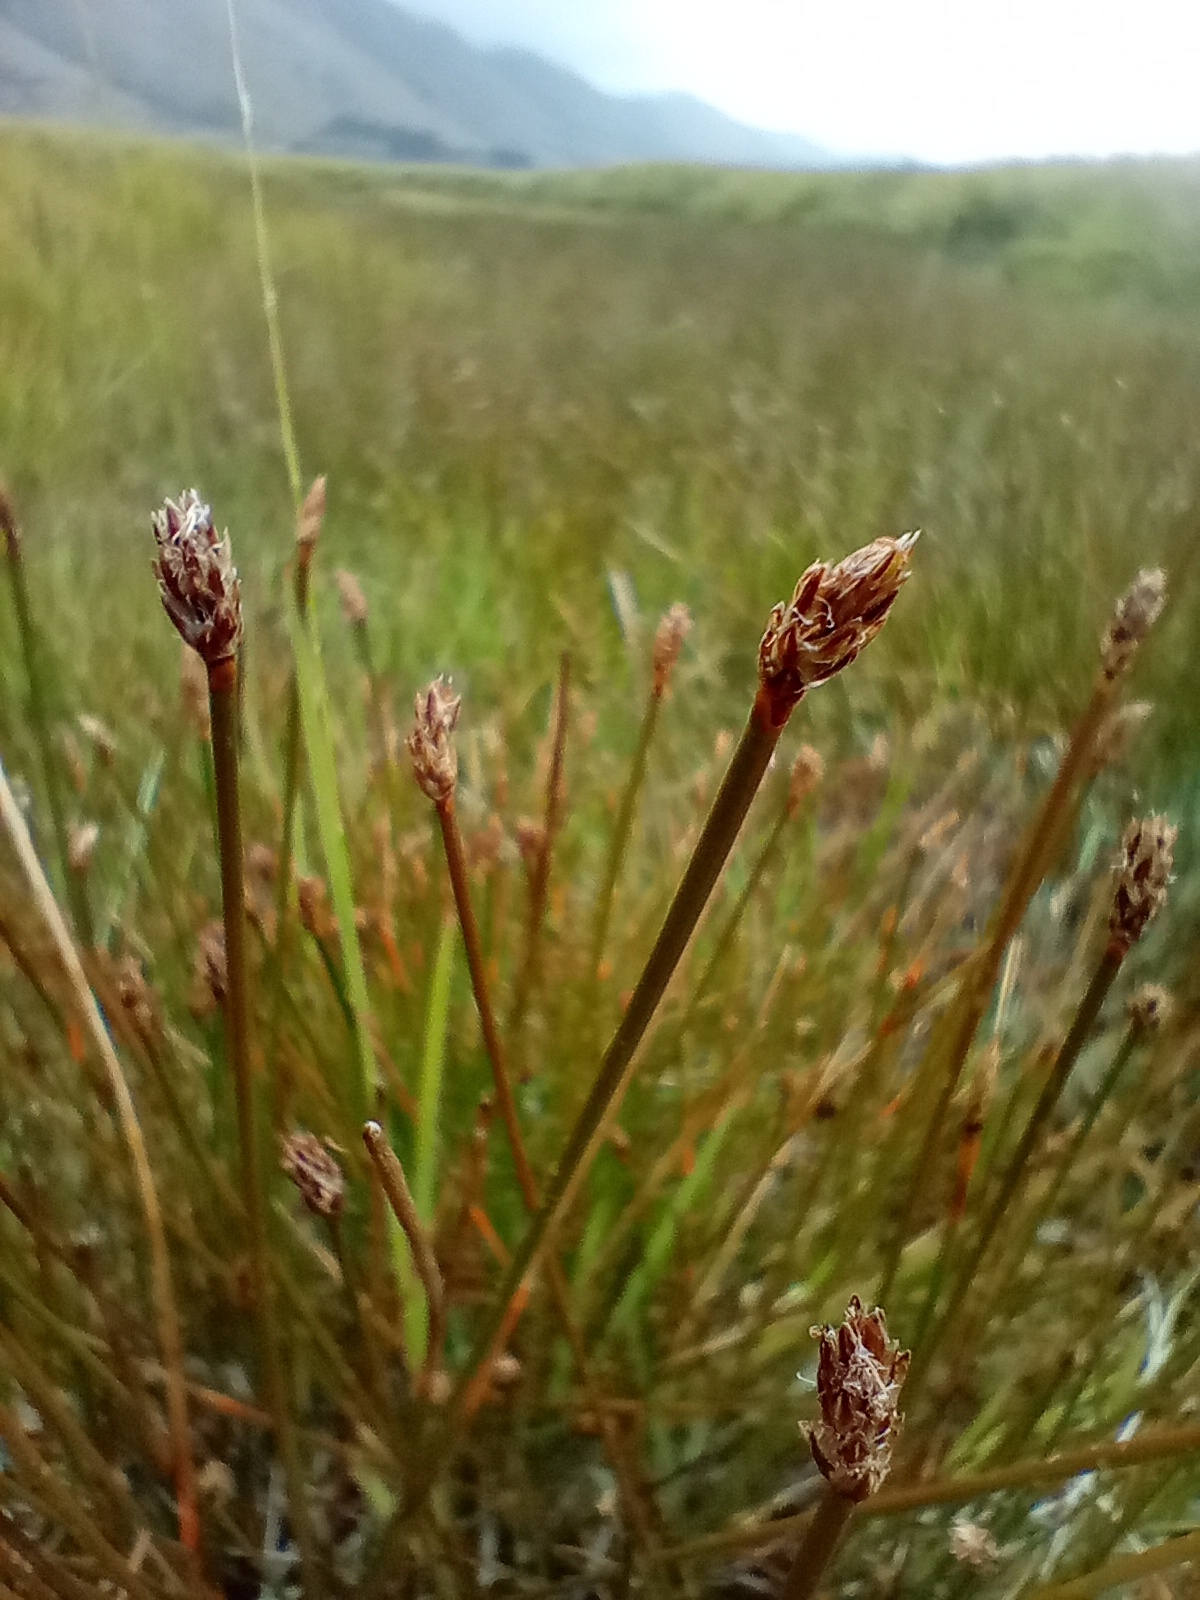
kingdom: Plantae
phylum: Tracheophyta
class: Liliopsida
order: Poales
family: Cyperaceae
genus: Eleocharis
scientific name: Eleocharis acuta
